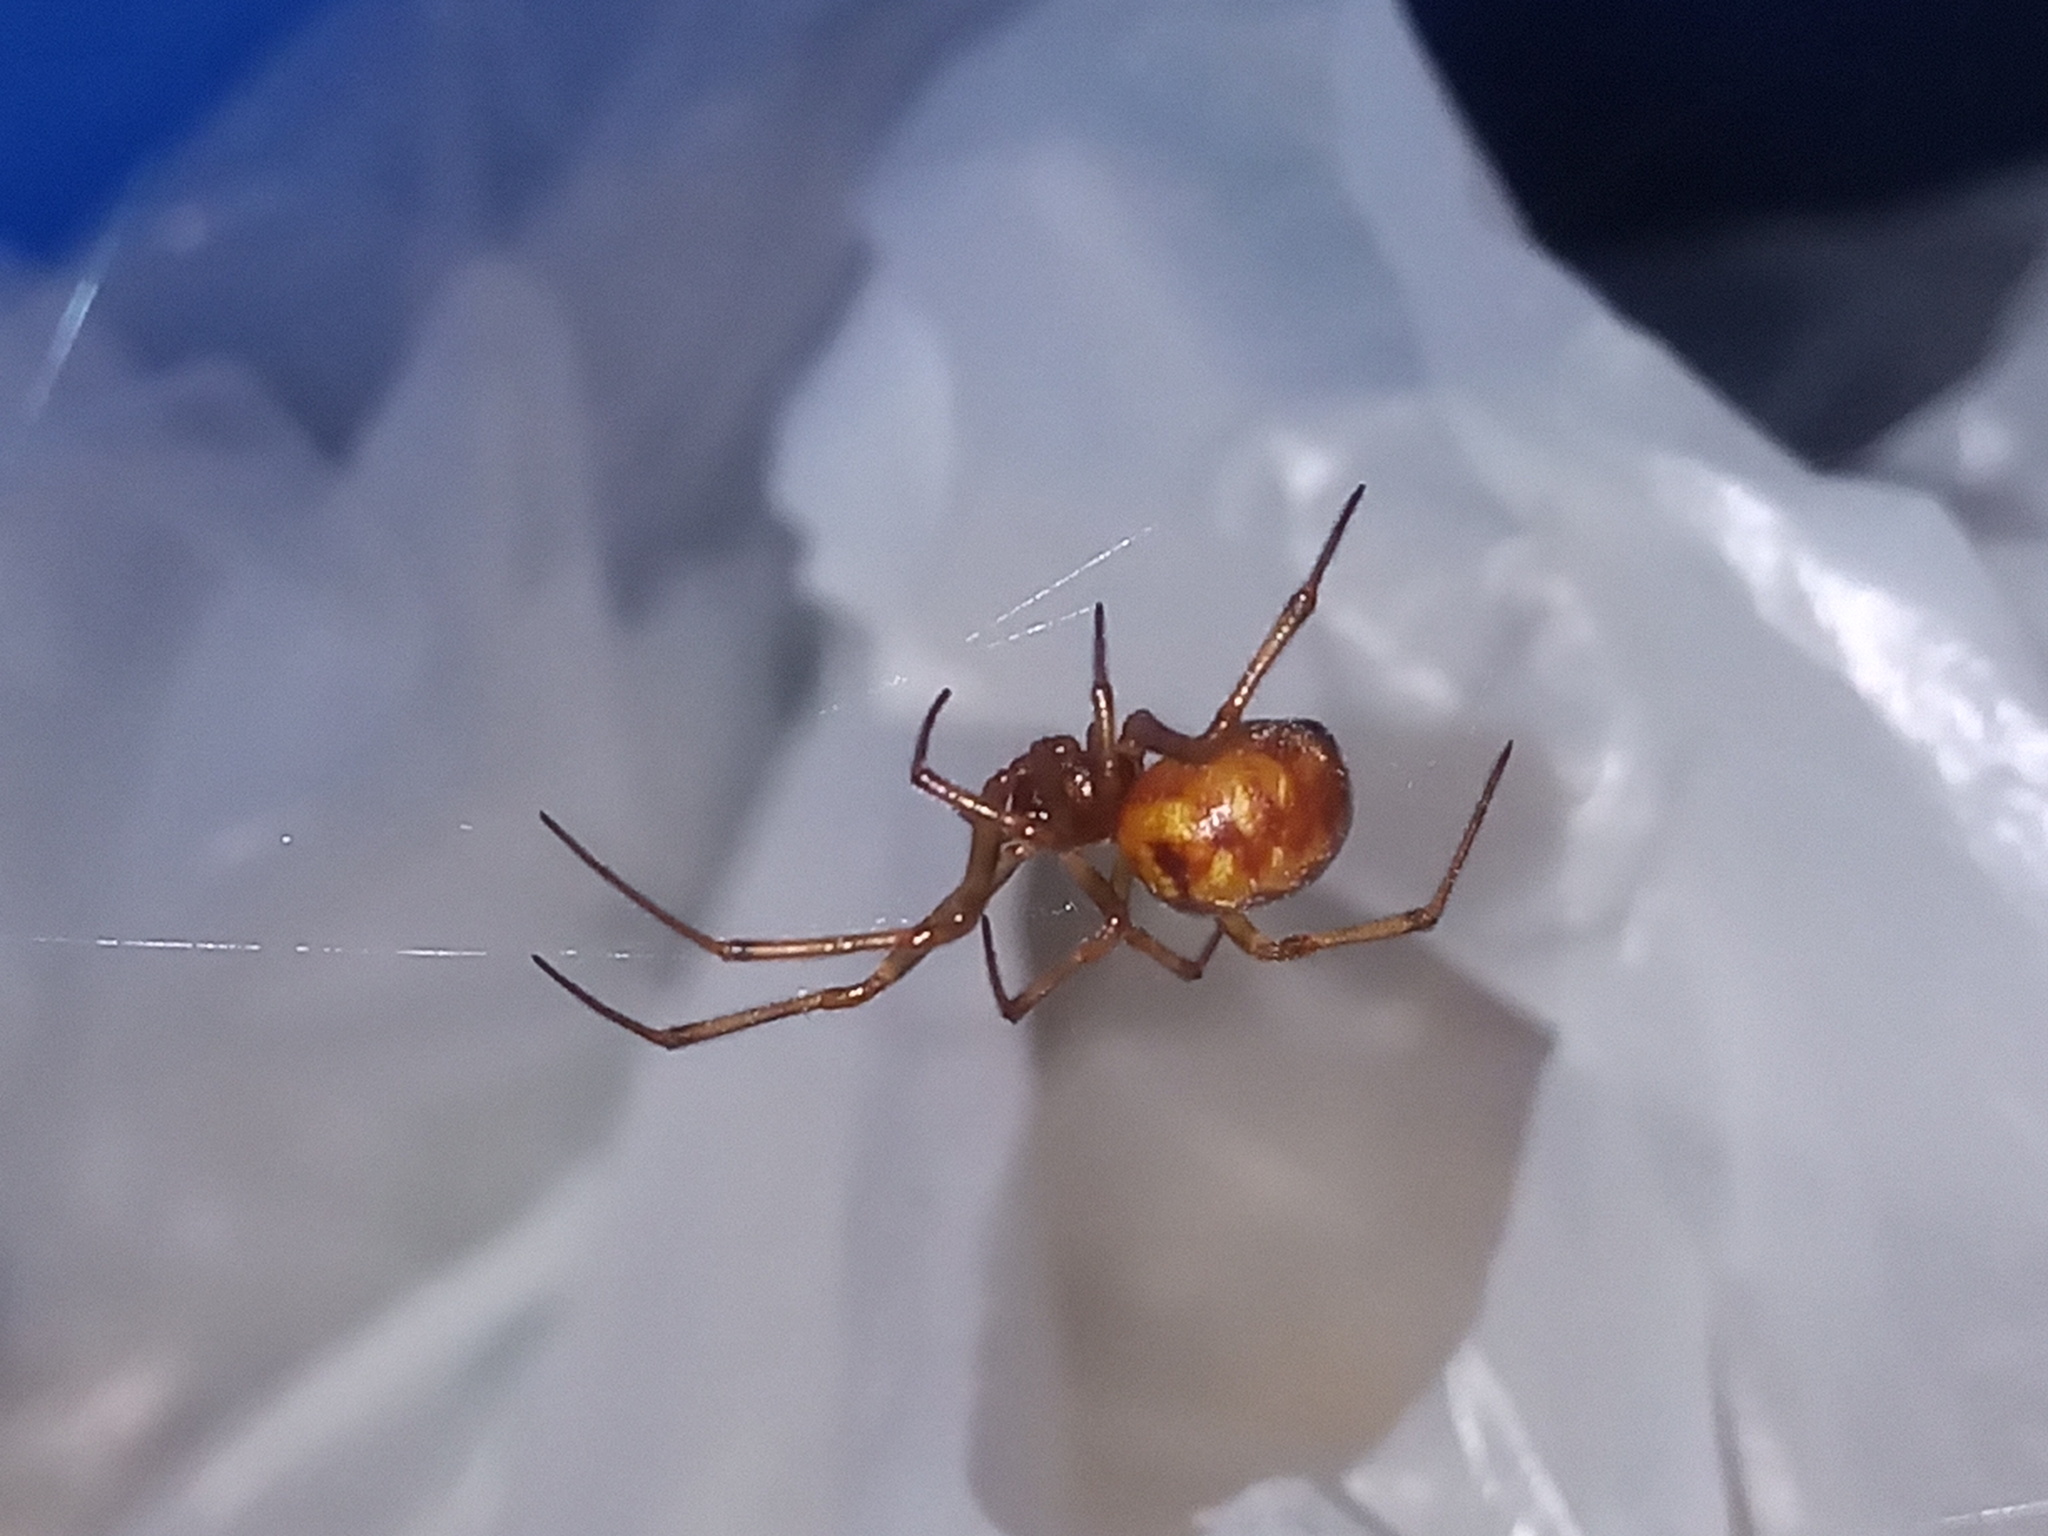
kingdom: Animalia
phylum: Arthropoda
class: Arachnida
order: Araneae
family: Theridiidae
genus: Steatoda
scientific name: Steatoda triangulosa
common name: Triangulate bud spider
